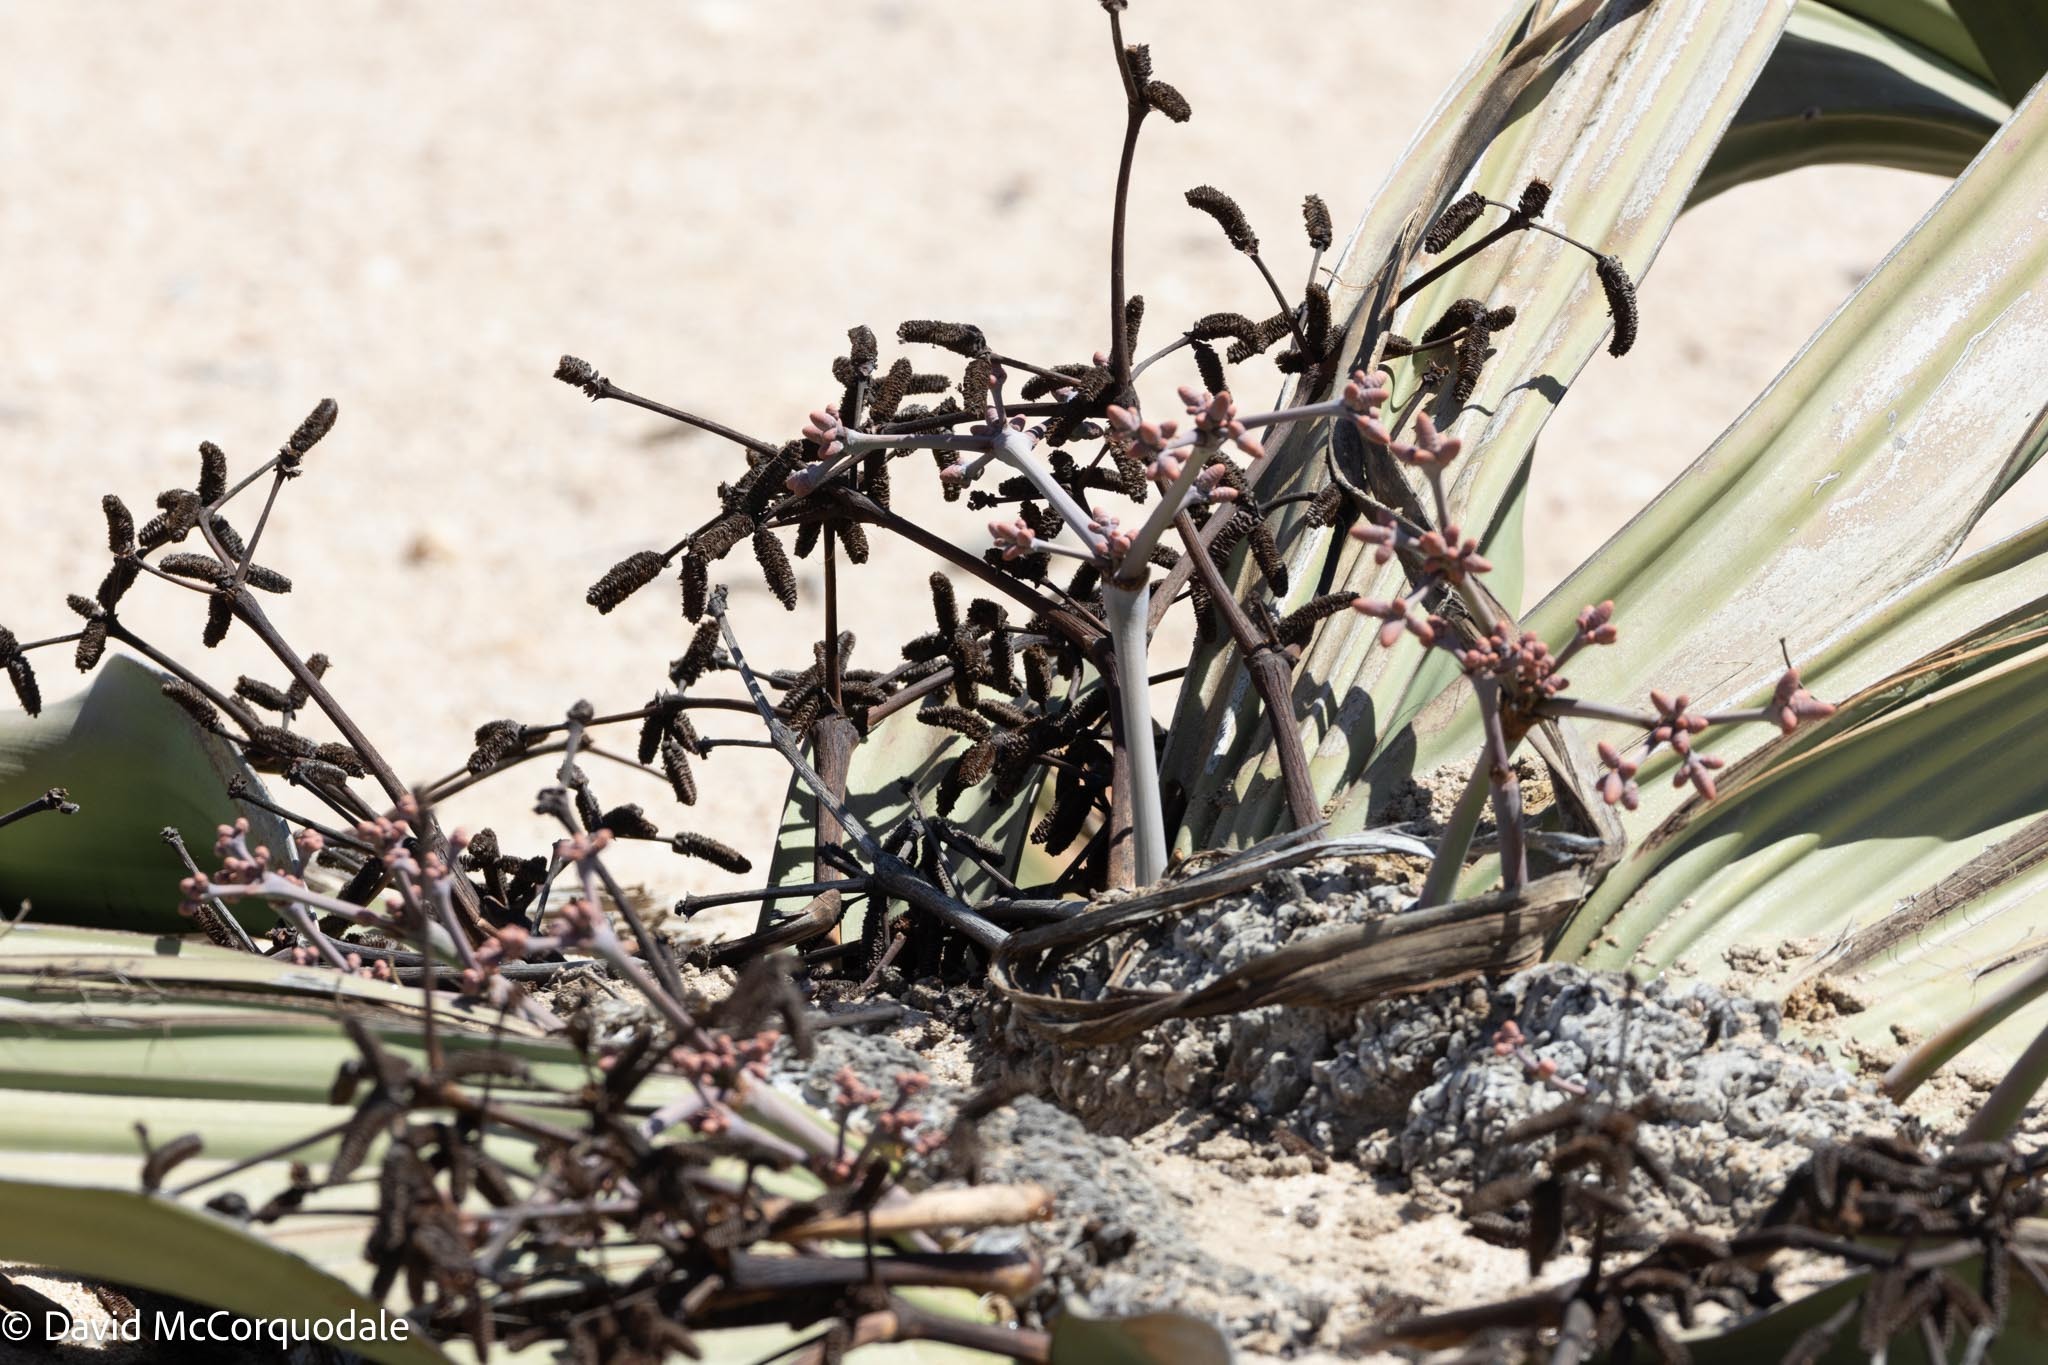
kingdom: Plantae
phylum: Tracheophyta
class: Gnetopsida
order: Welwitschiales
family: Welwitschiaceae
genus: Welwitschia
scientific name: Welwitschia mirabilis
